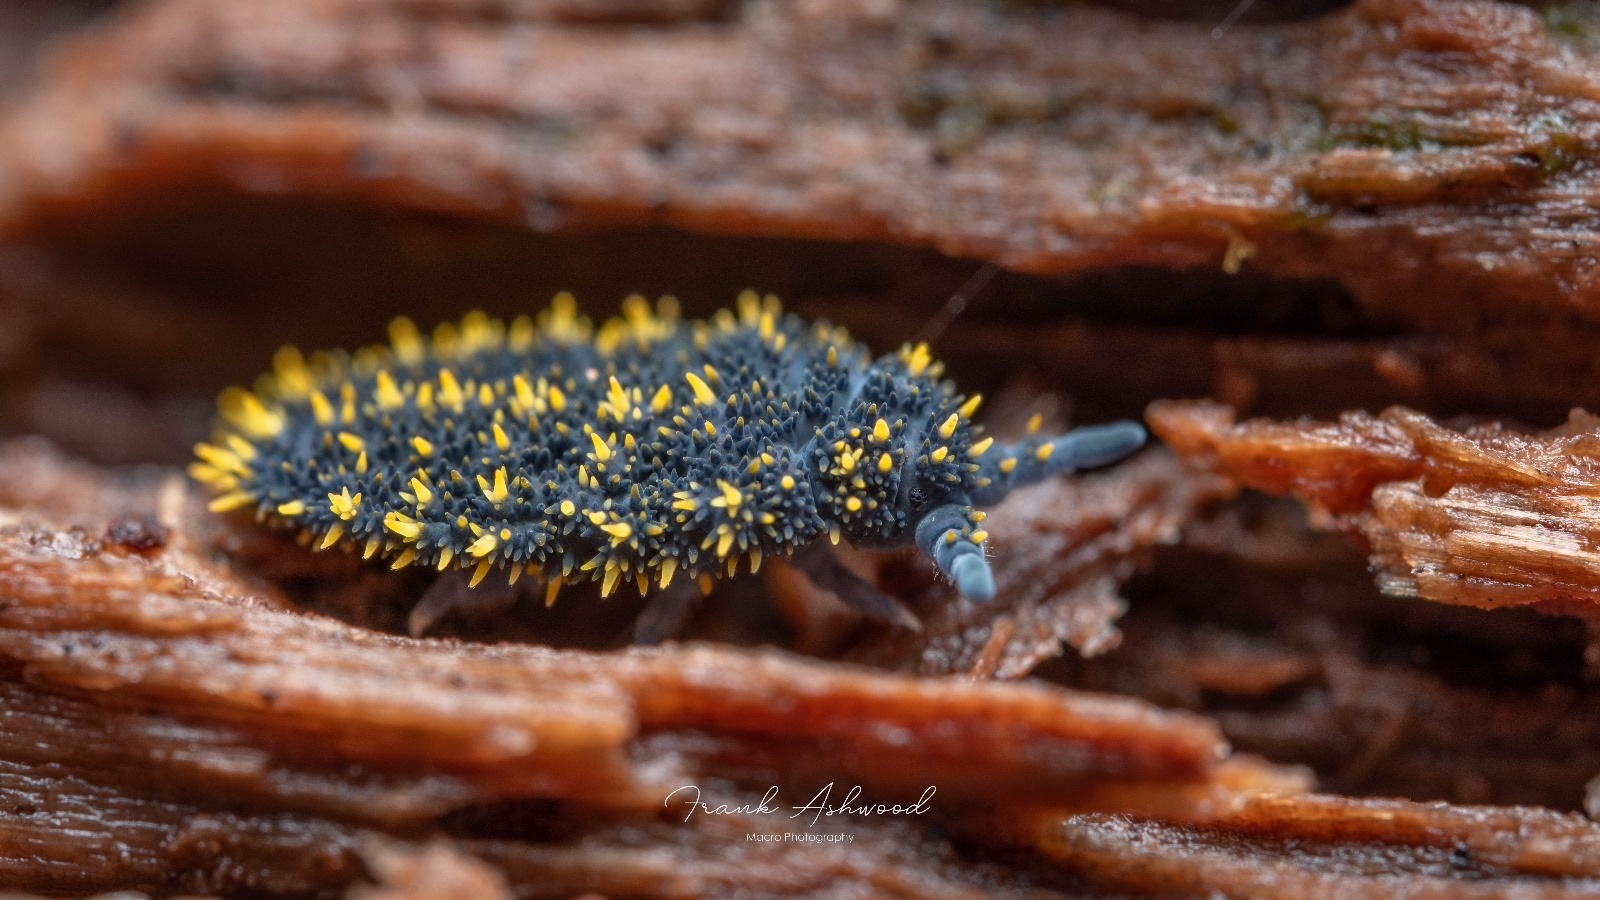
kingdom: Animalia
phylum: Arthropoda
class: Collembola
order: Poduromorpha
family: Neanuridae
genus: Holacanthella
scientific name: Holacanthella duospinosa
